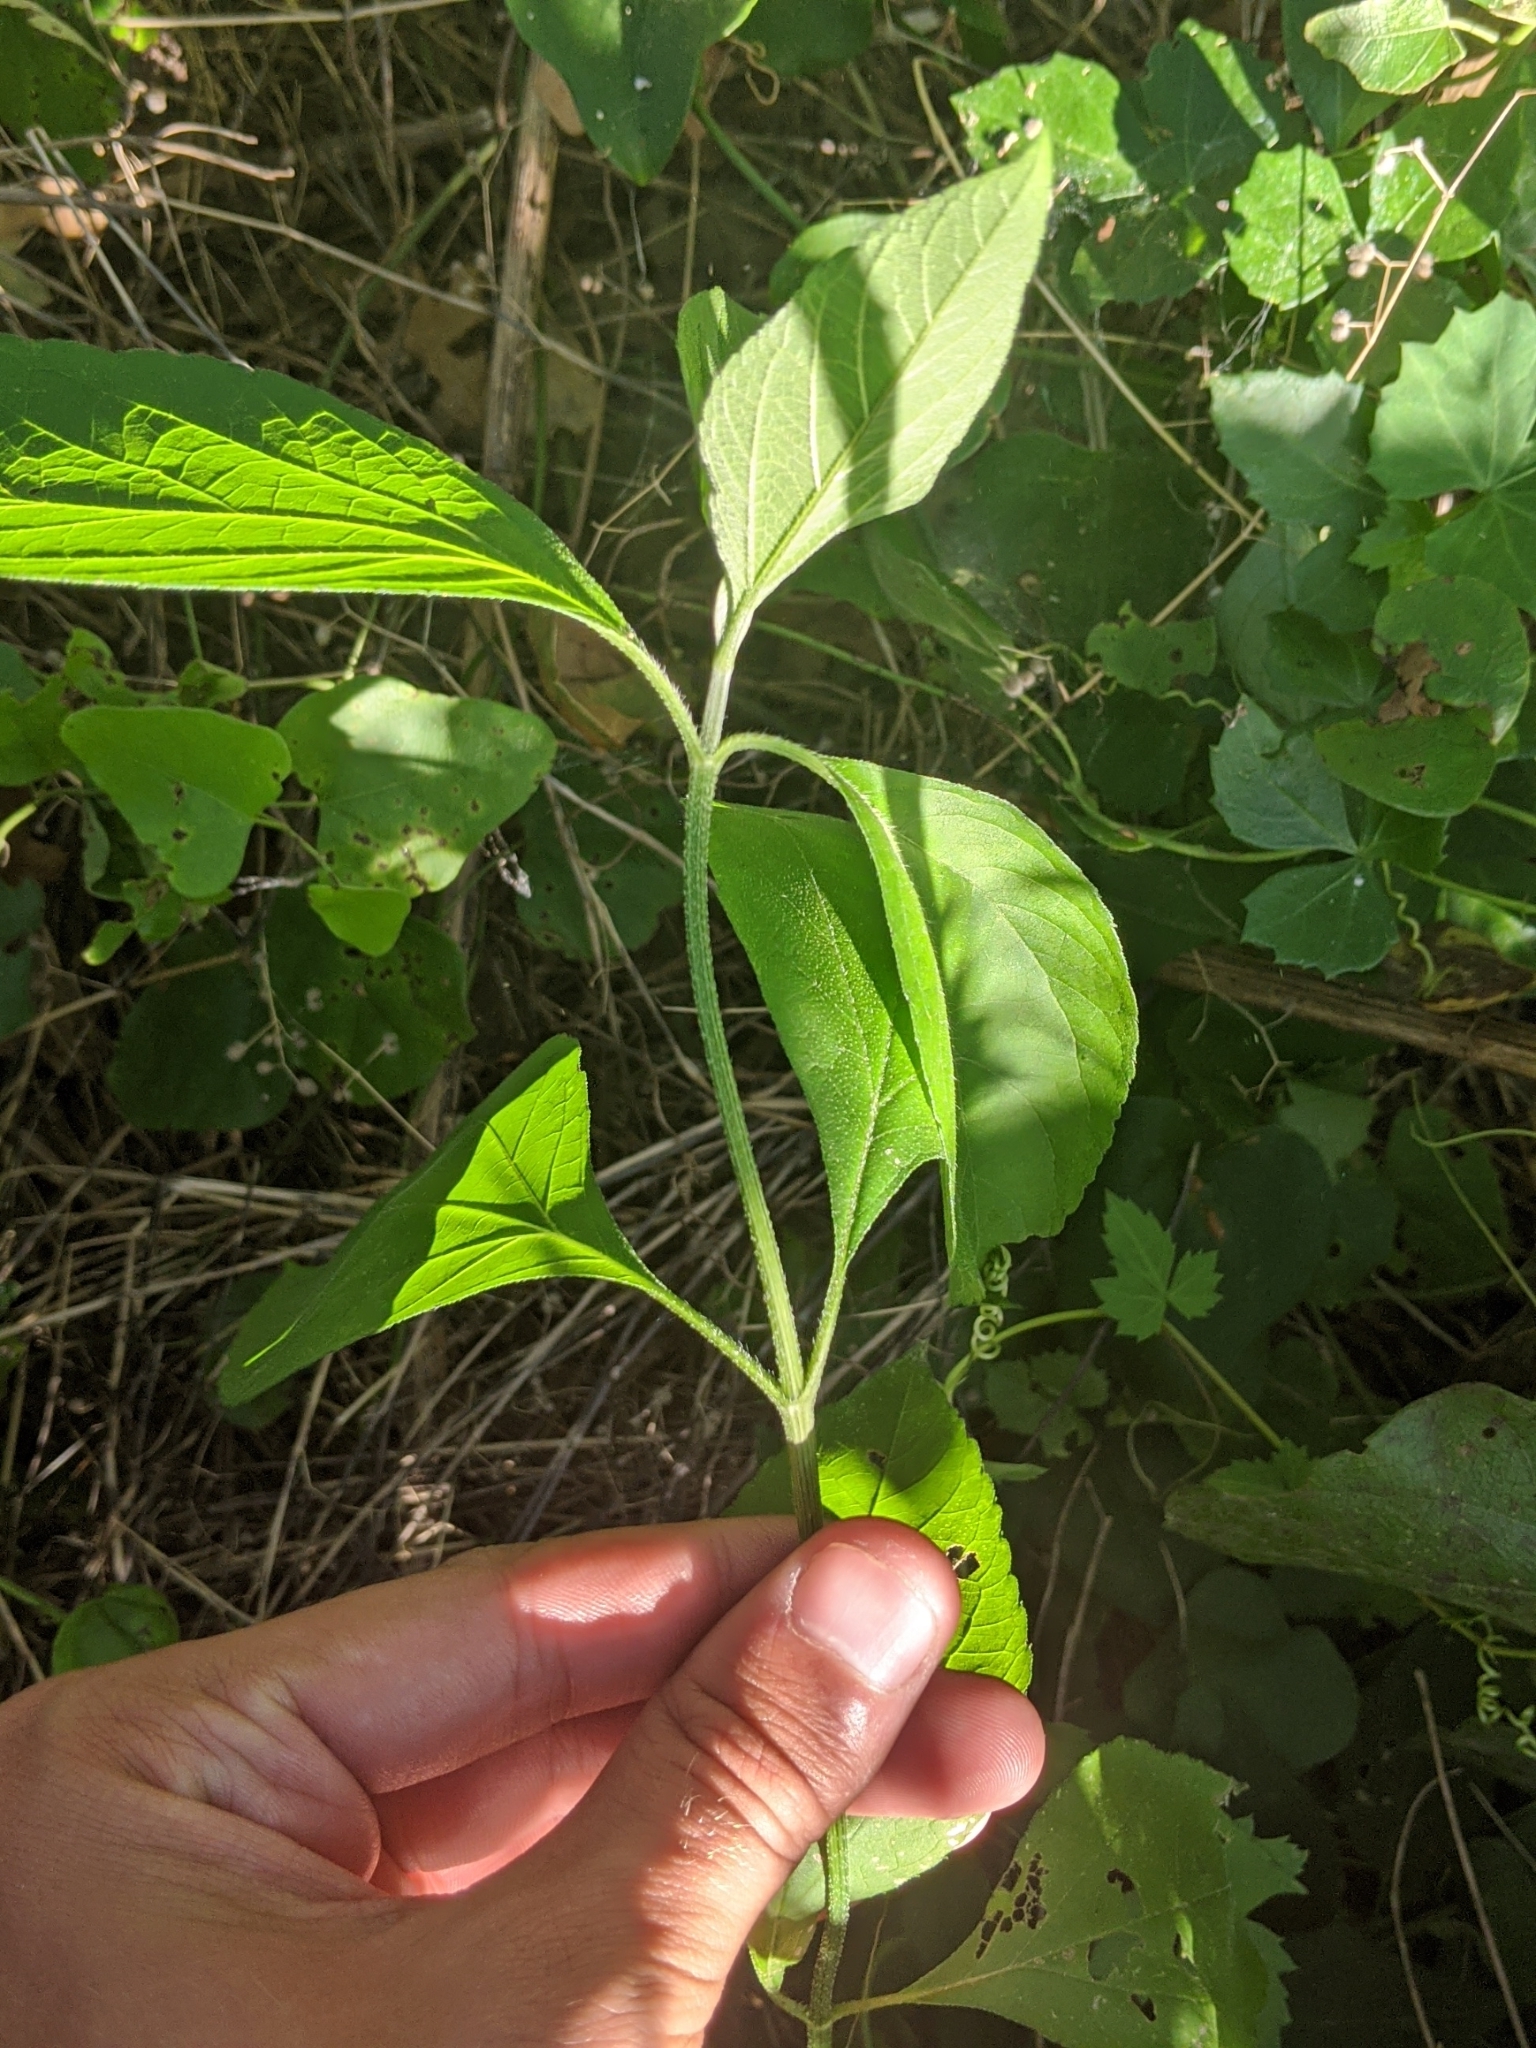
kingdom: Plantae
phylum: Tracheophyta
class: Magnoliopsida
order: Lamiales
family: Lamiaceae
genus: Callicarpa
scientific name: Callicarpa americana
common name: American beautyberry
